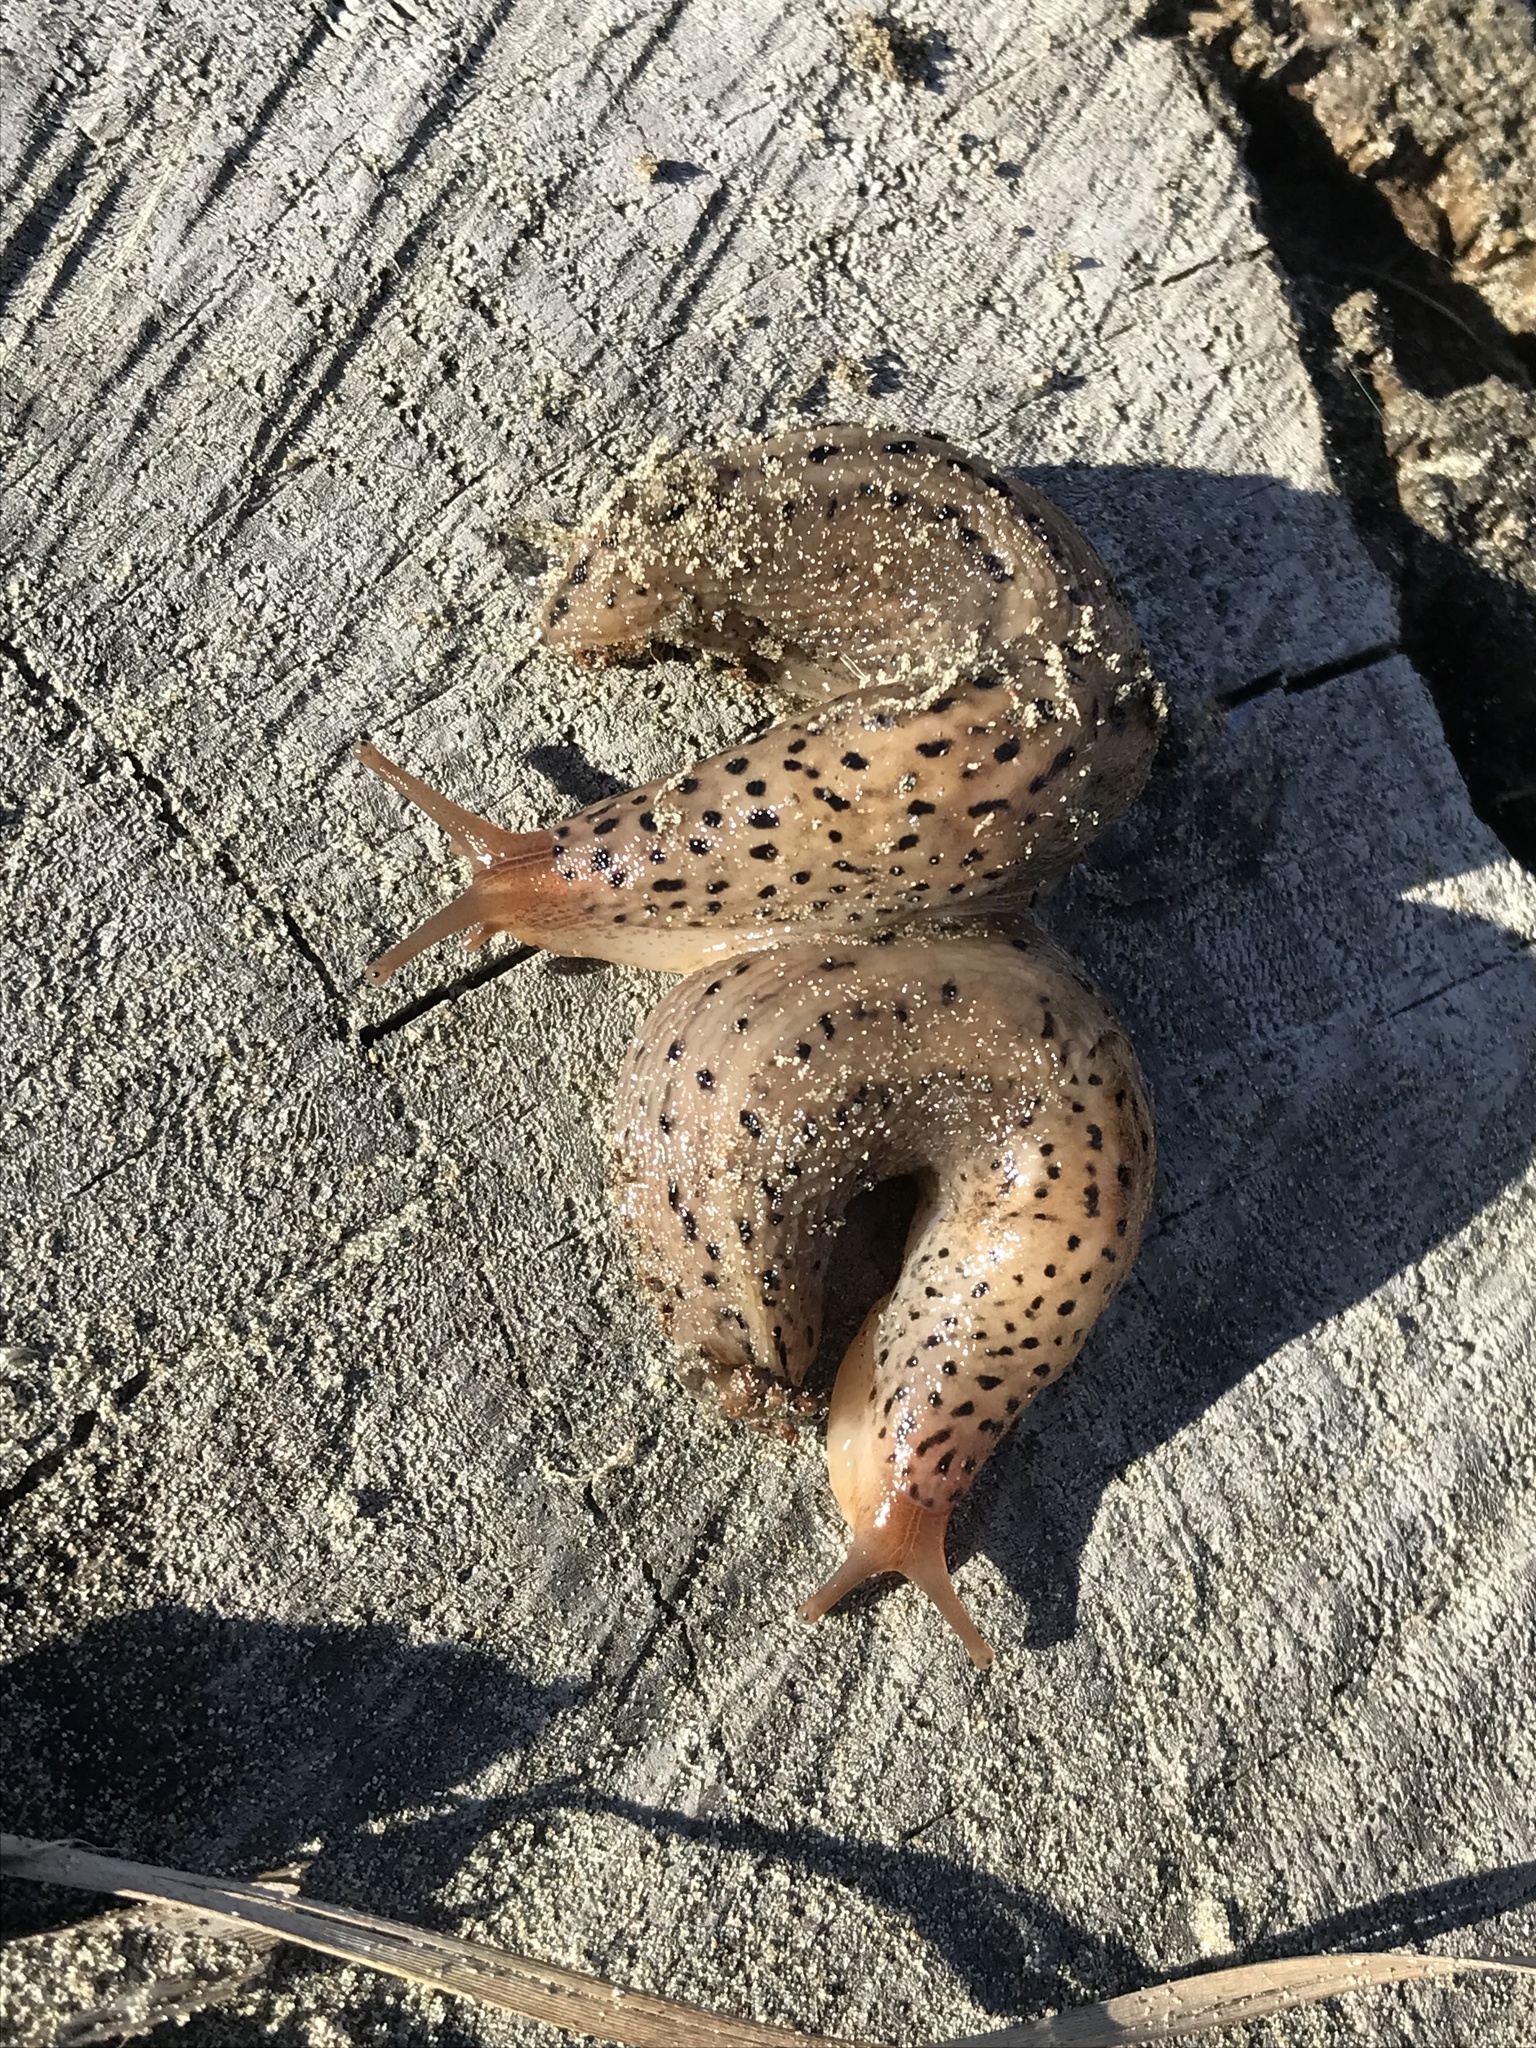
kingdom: Animalia
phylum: Mollusca
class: Gastropoda
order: Stylommatophora
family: Limacidae
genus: Limax
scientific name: Limax maximus
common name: Great grey slug
